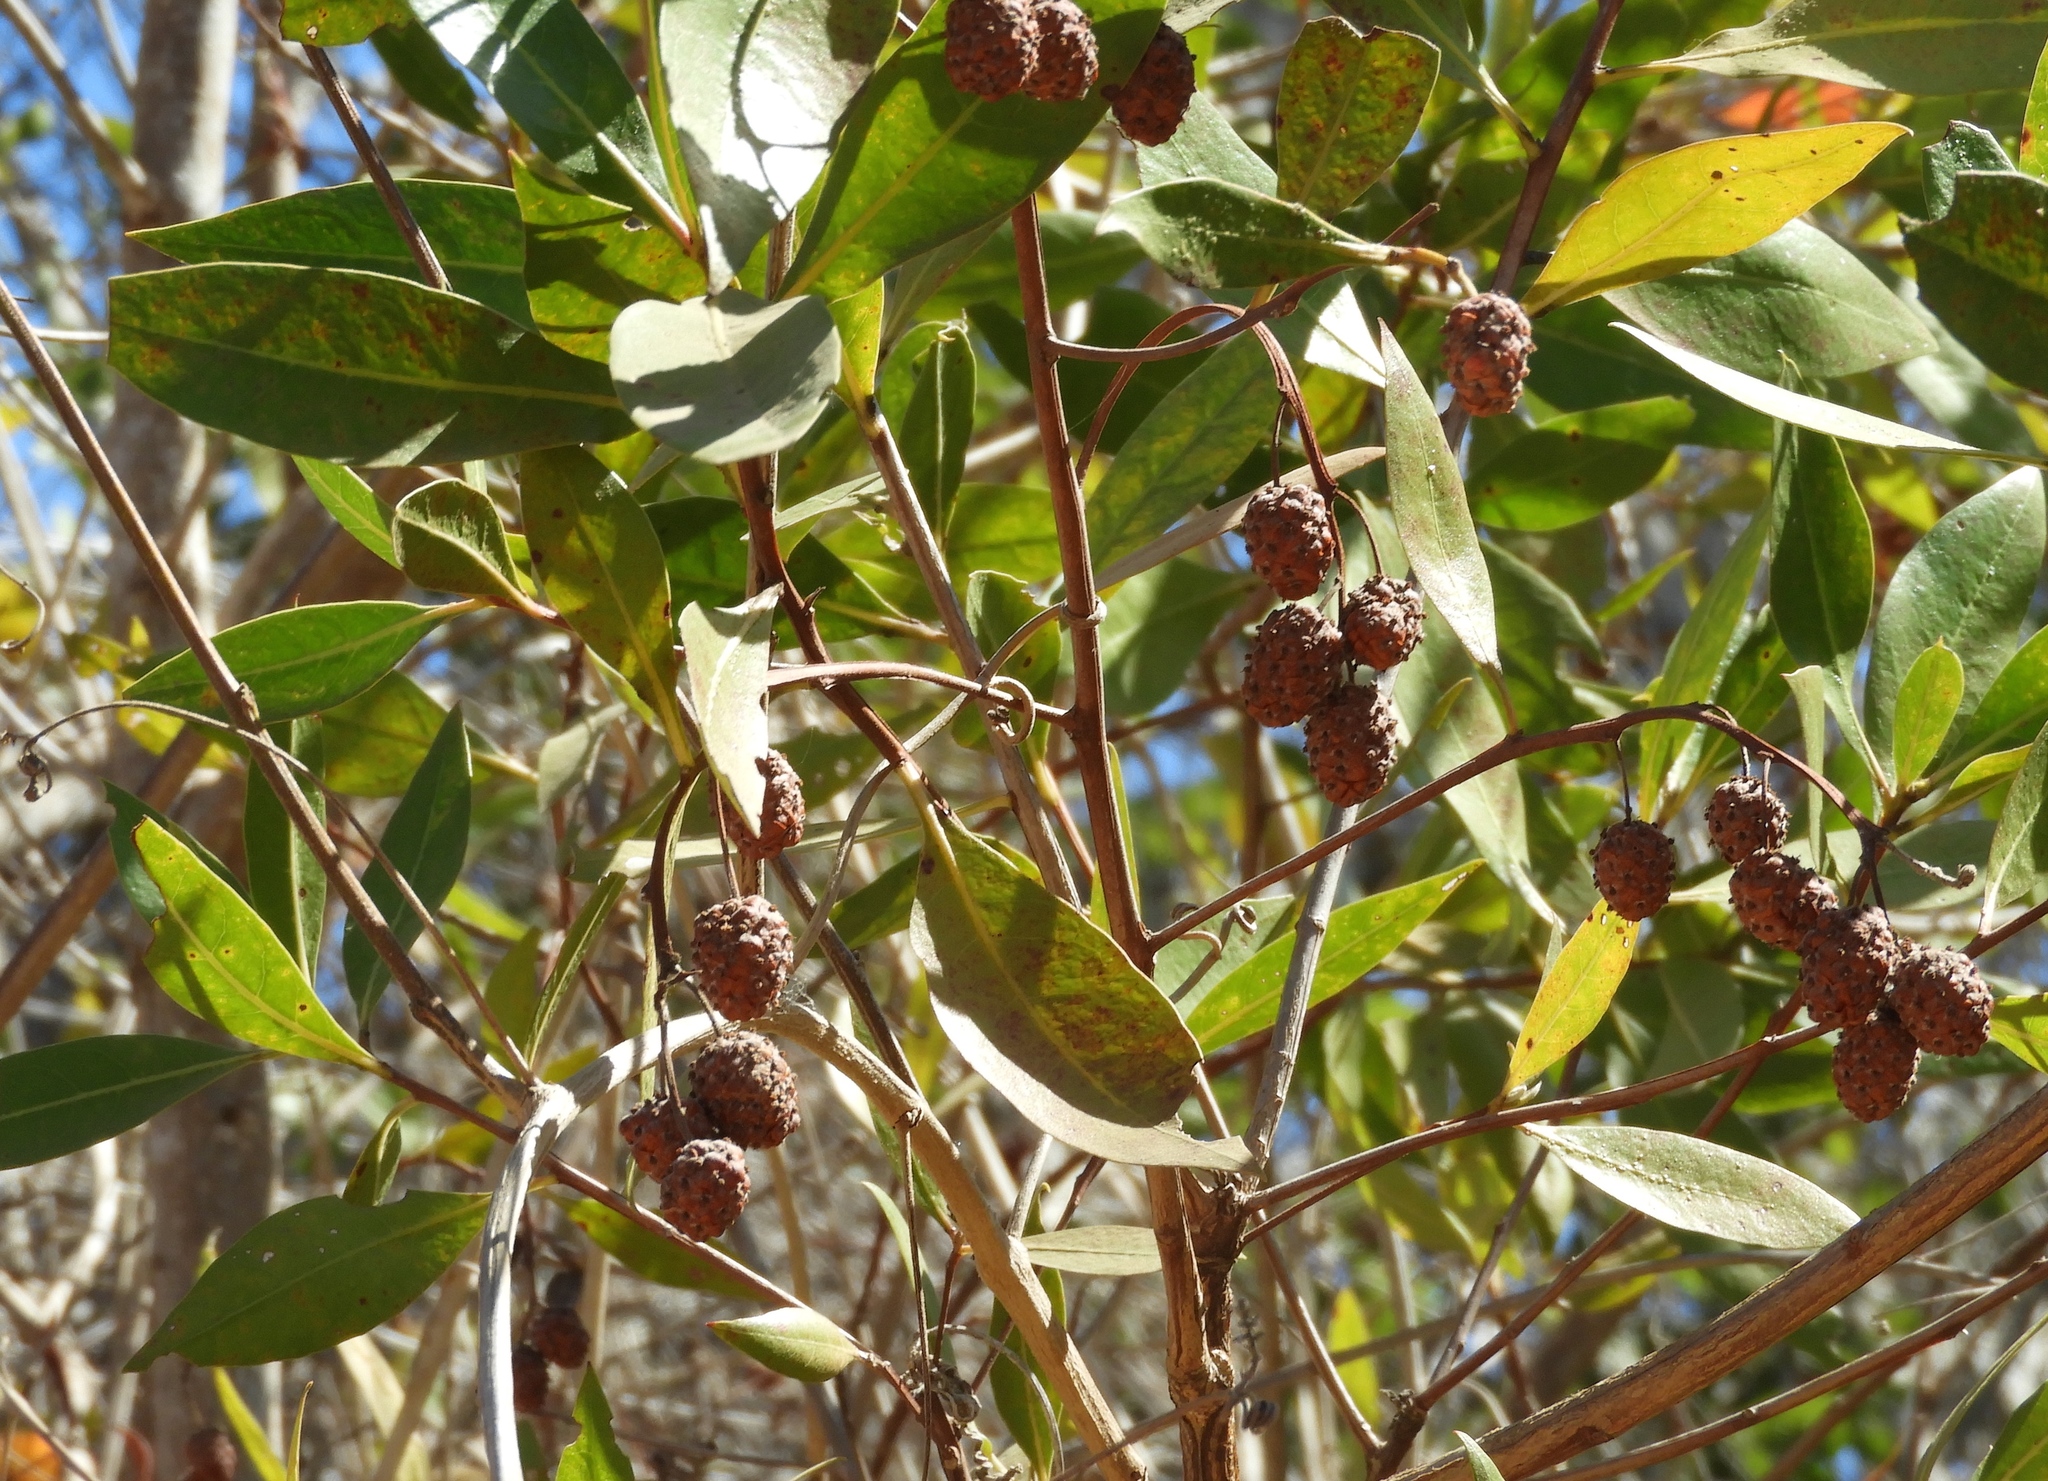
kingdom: Plantae
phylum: Tracheophyta
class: Magnoliopsida
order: Myrtales
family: Combretaceae
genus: Conocarpus
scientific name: Conocarpus erectus
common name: Button mangrove
